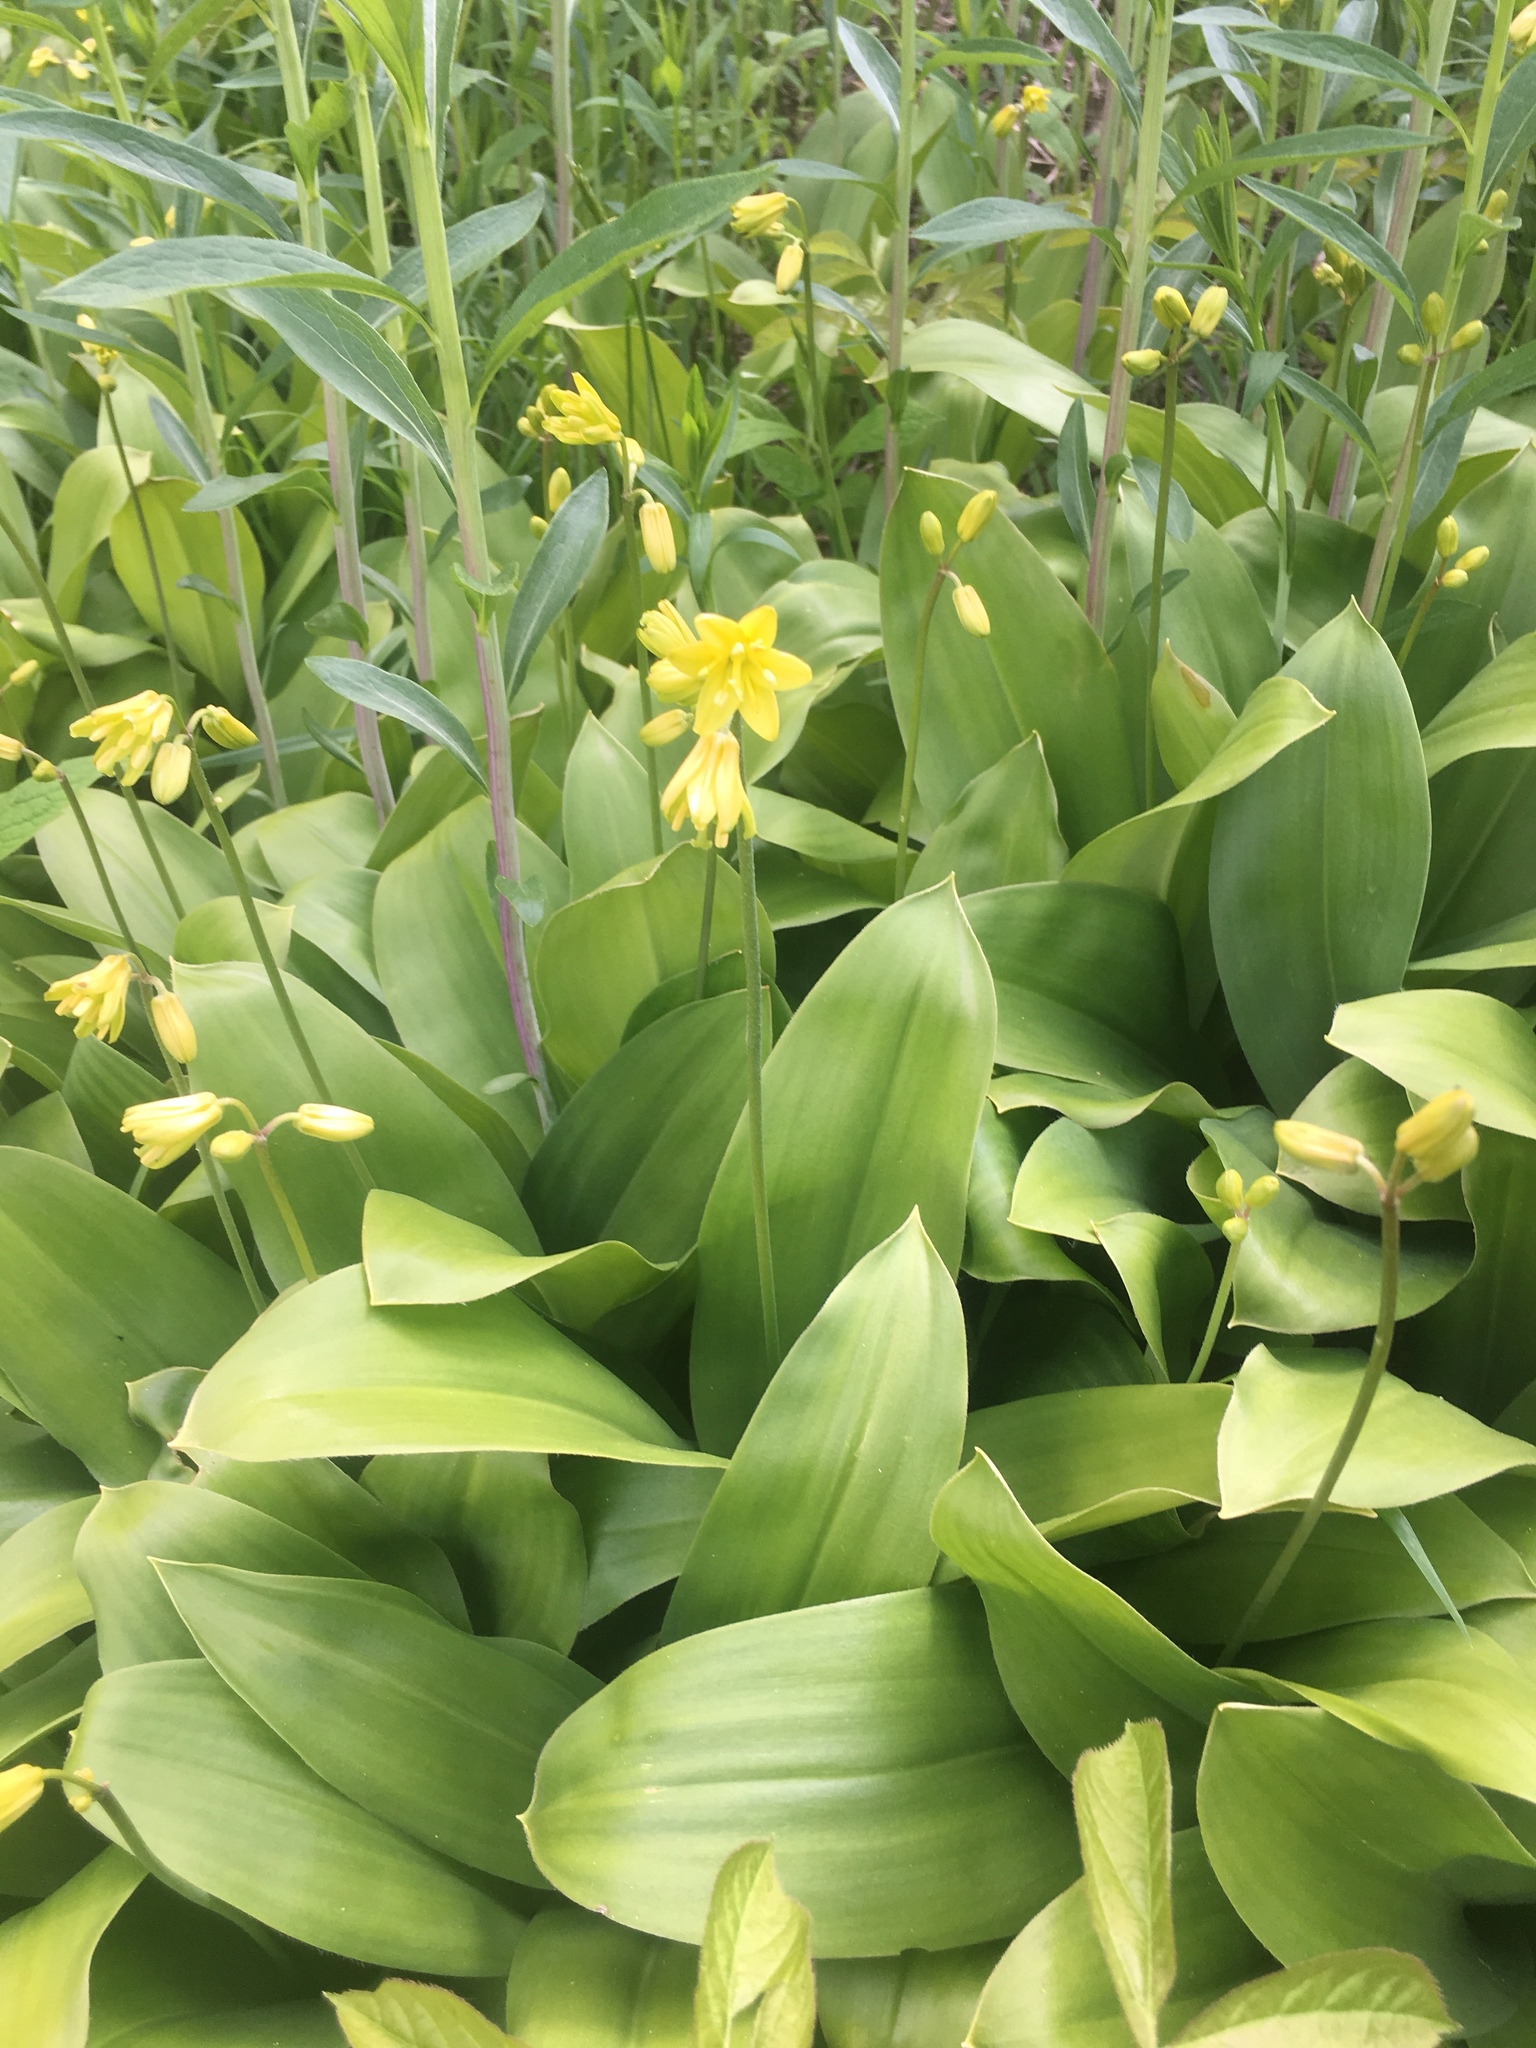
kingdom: Plantae
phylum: Tracheophyta
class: Liliopsida
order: Liliales
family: Liliaceae
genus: Clintonia
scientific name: Clintonia borealis
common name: Yellow clintonia
